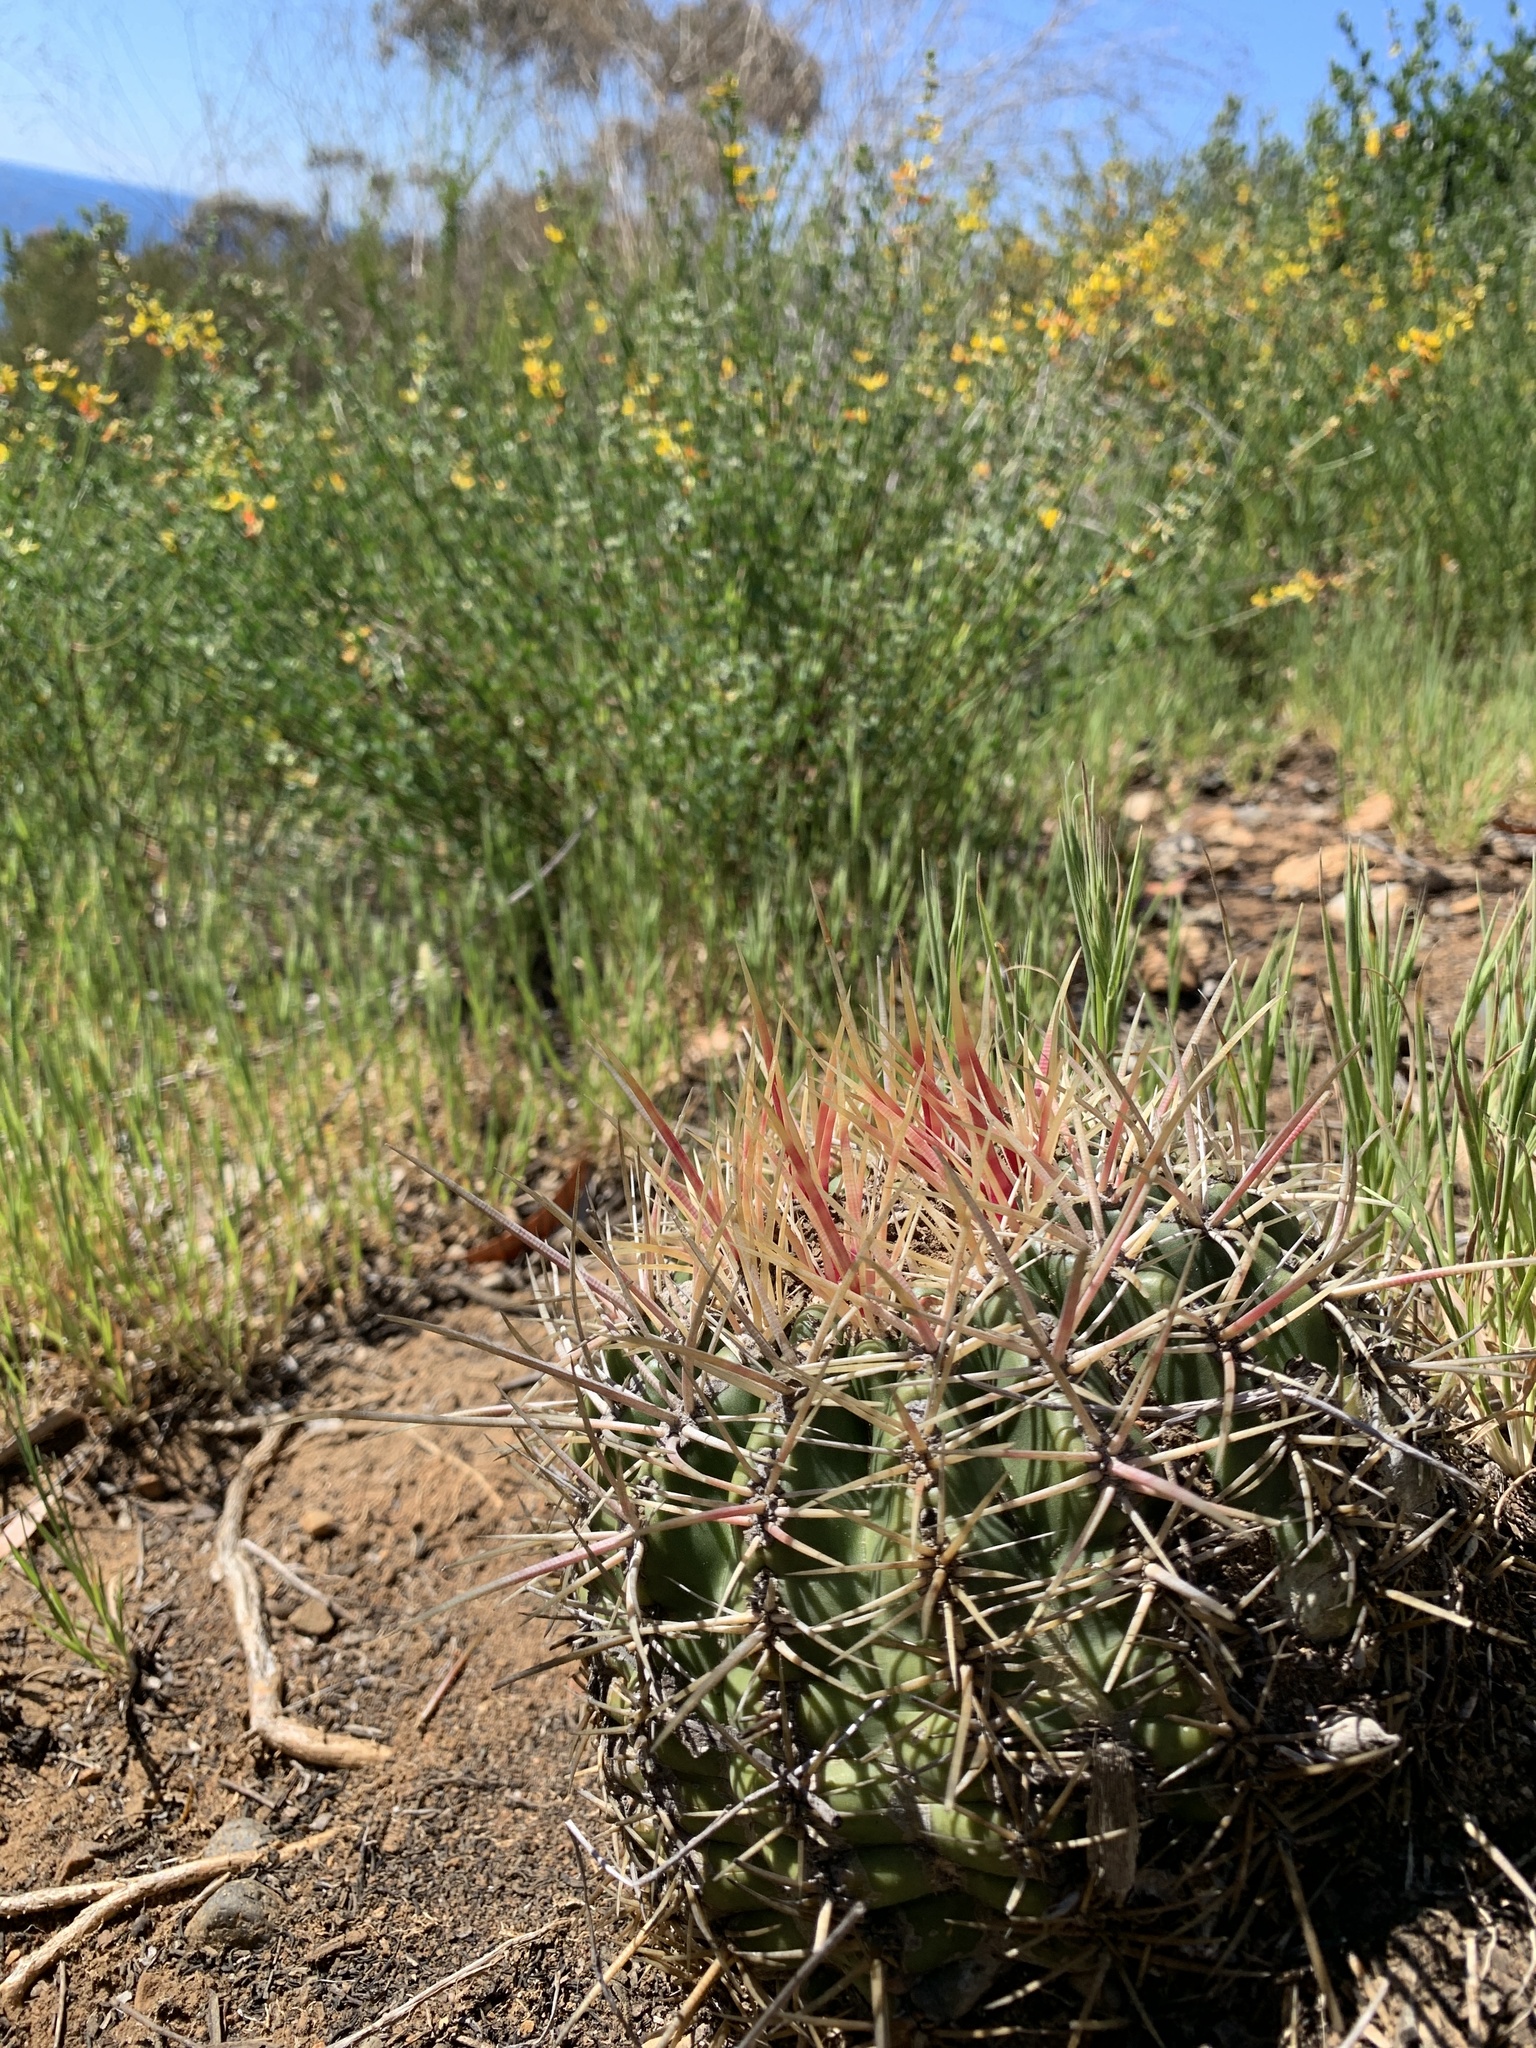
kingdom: Plantae
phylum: Tracheophyta
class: Magnoliopsida
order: Caryophyllales
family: Cactaceae
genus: Ferocactus
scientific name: Ferocactus viridescens
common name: San diego barrel cactus
